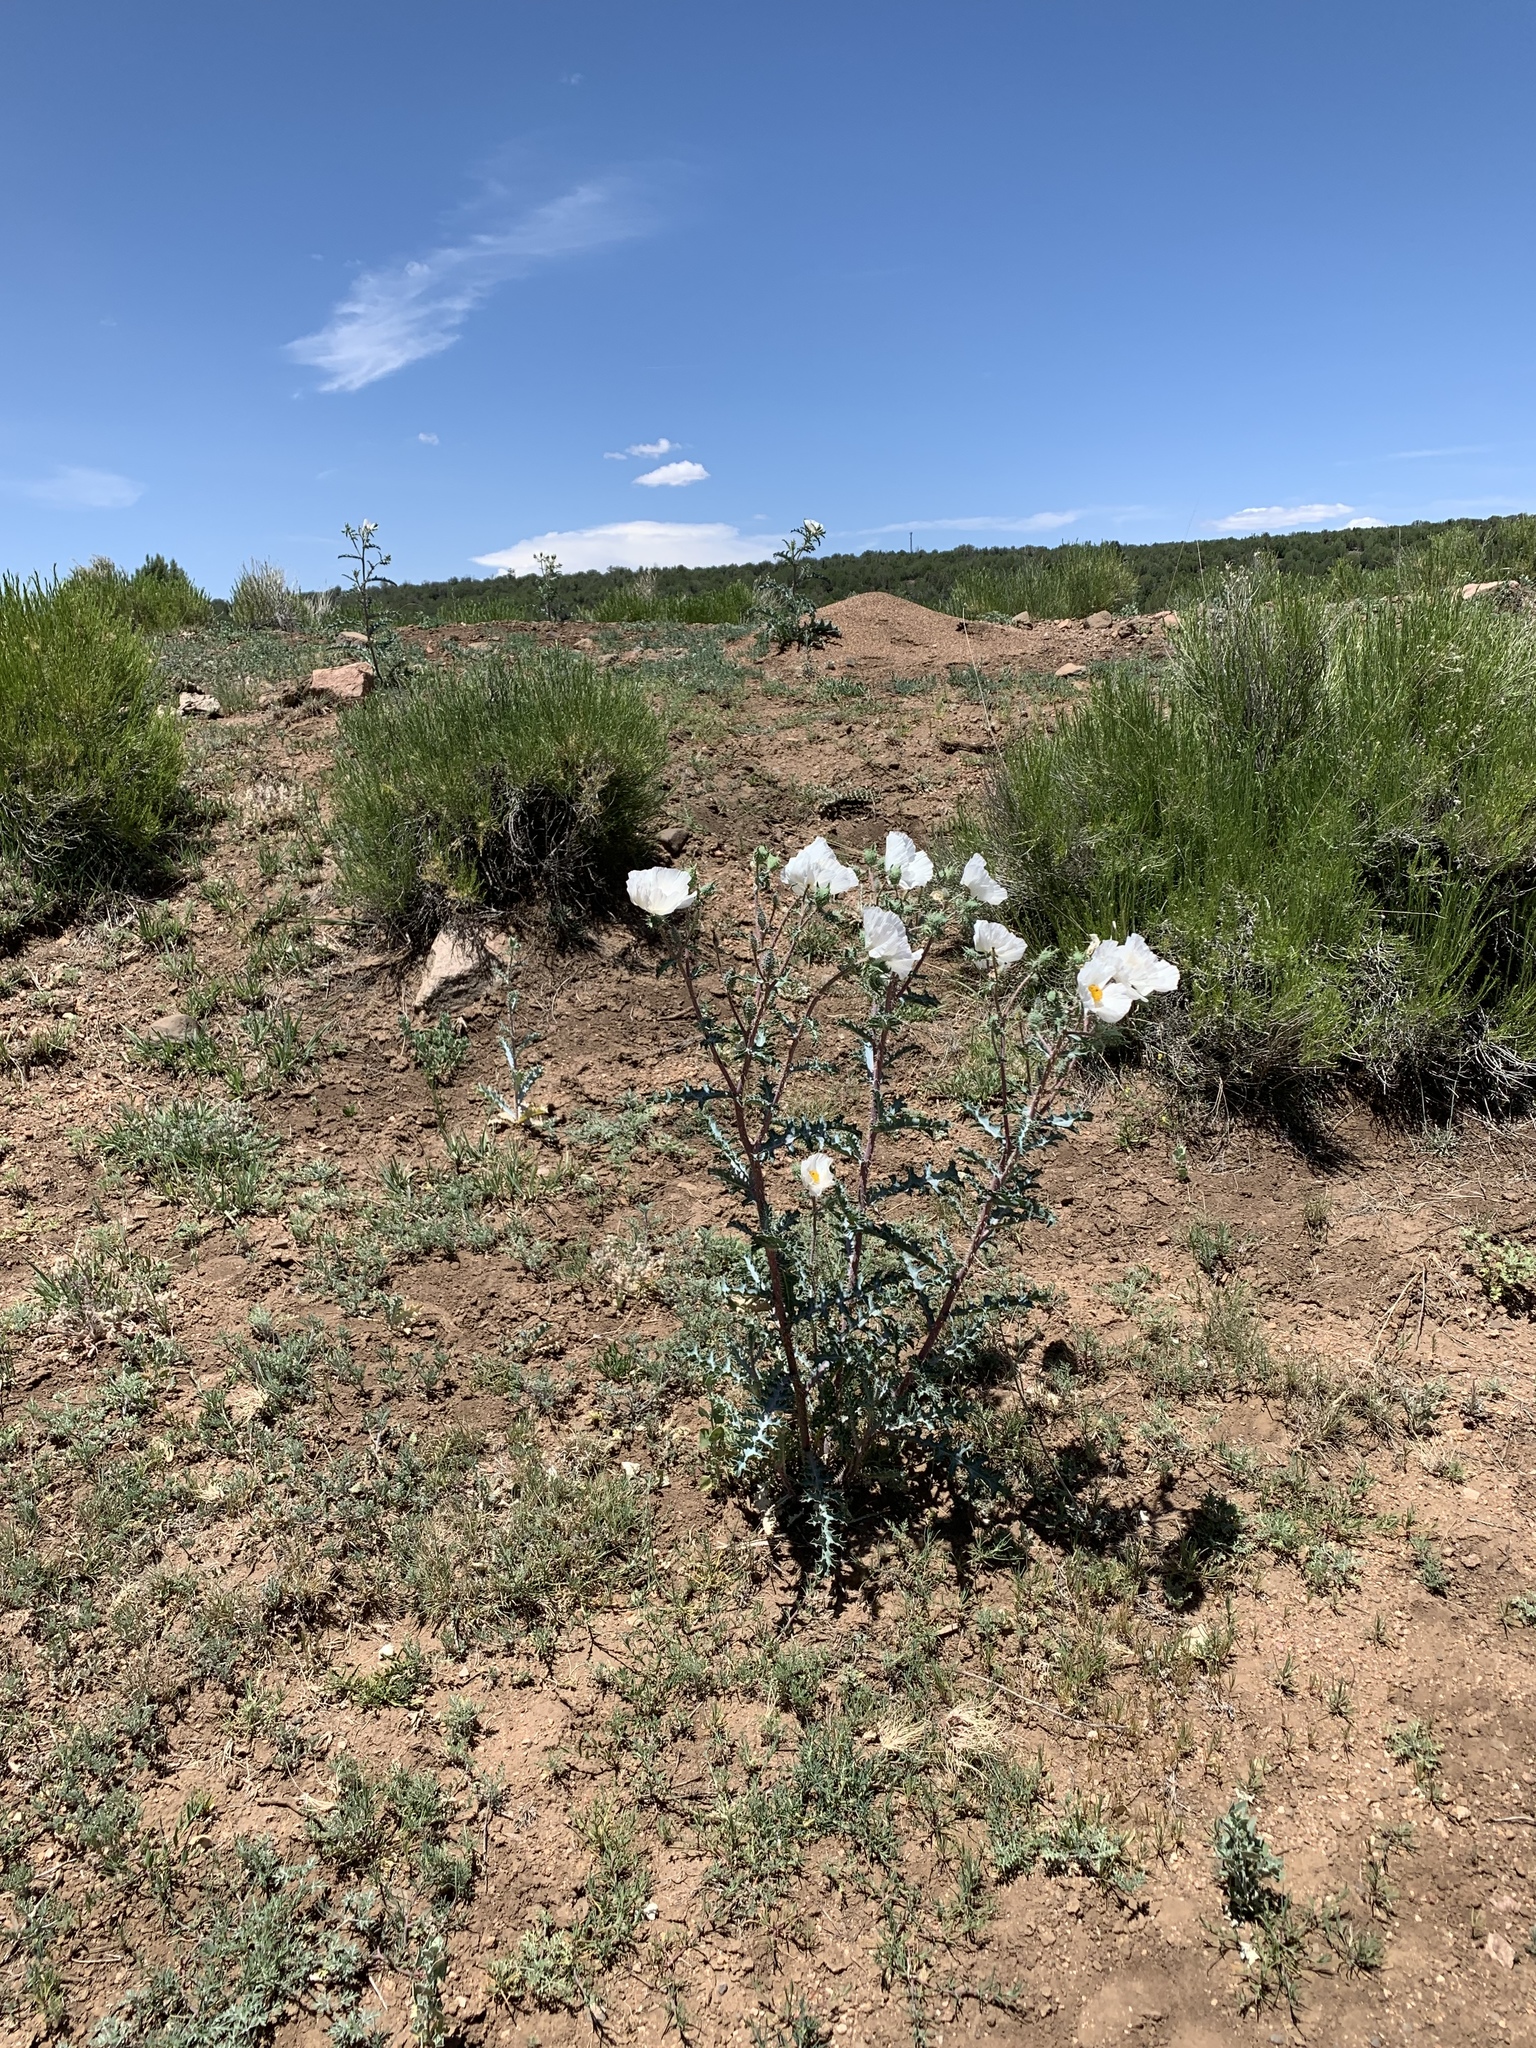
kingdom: Plantae
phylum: Tracheophyta
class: Magnoliopsida
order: Ranunculales
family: Papaveraceae
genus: Argemone
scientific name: Argemone pleiacantha
